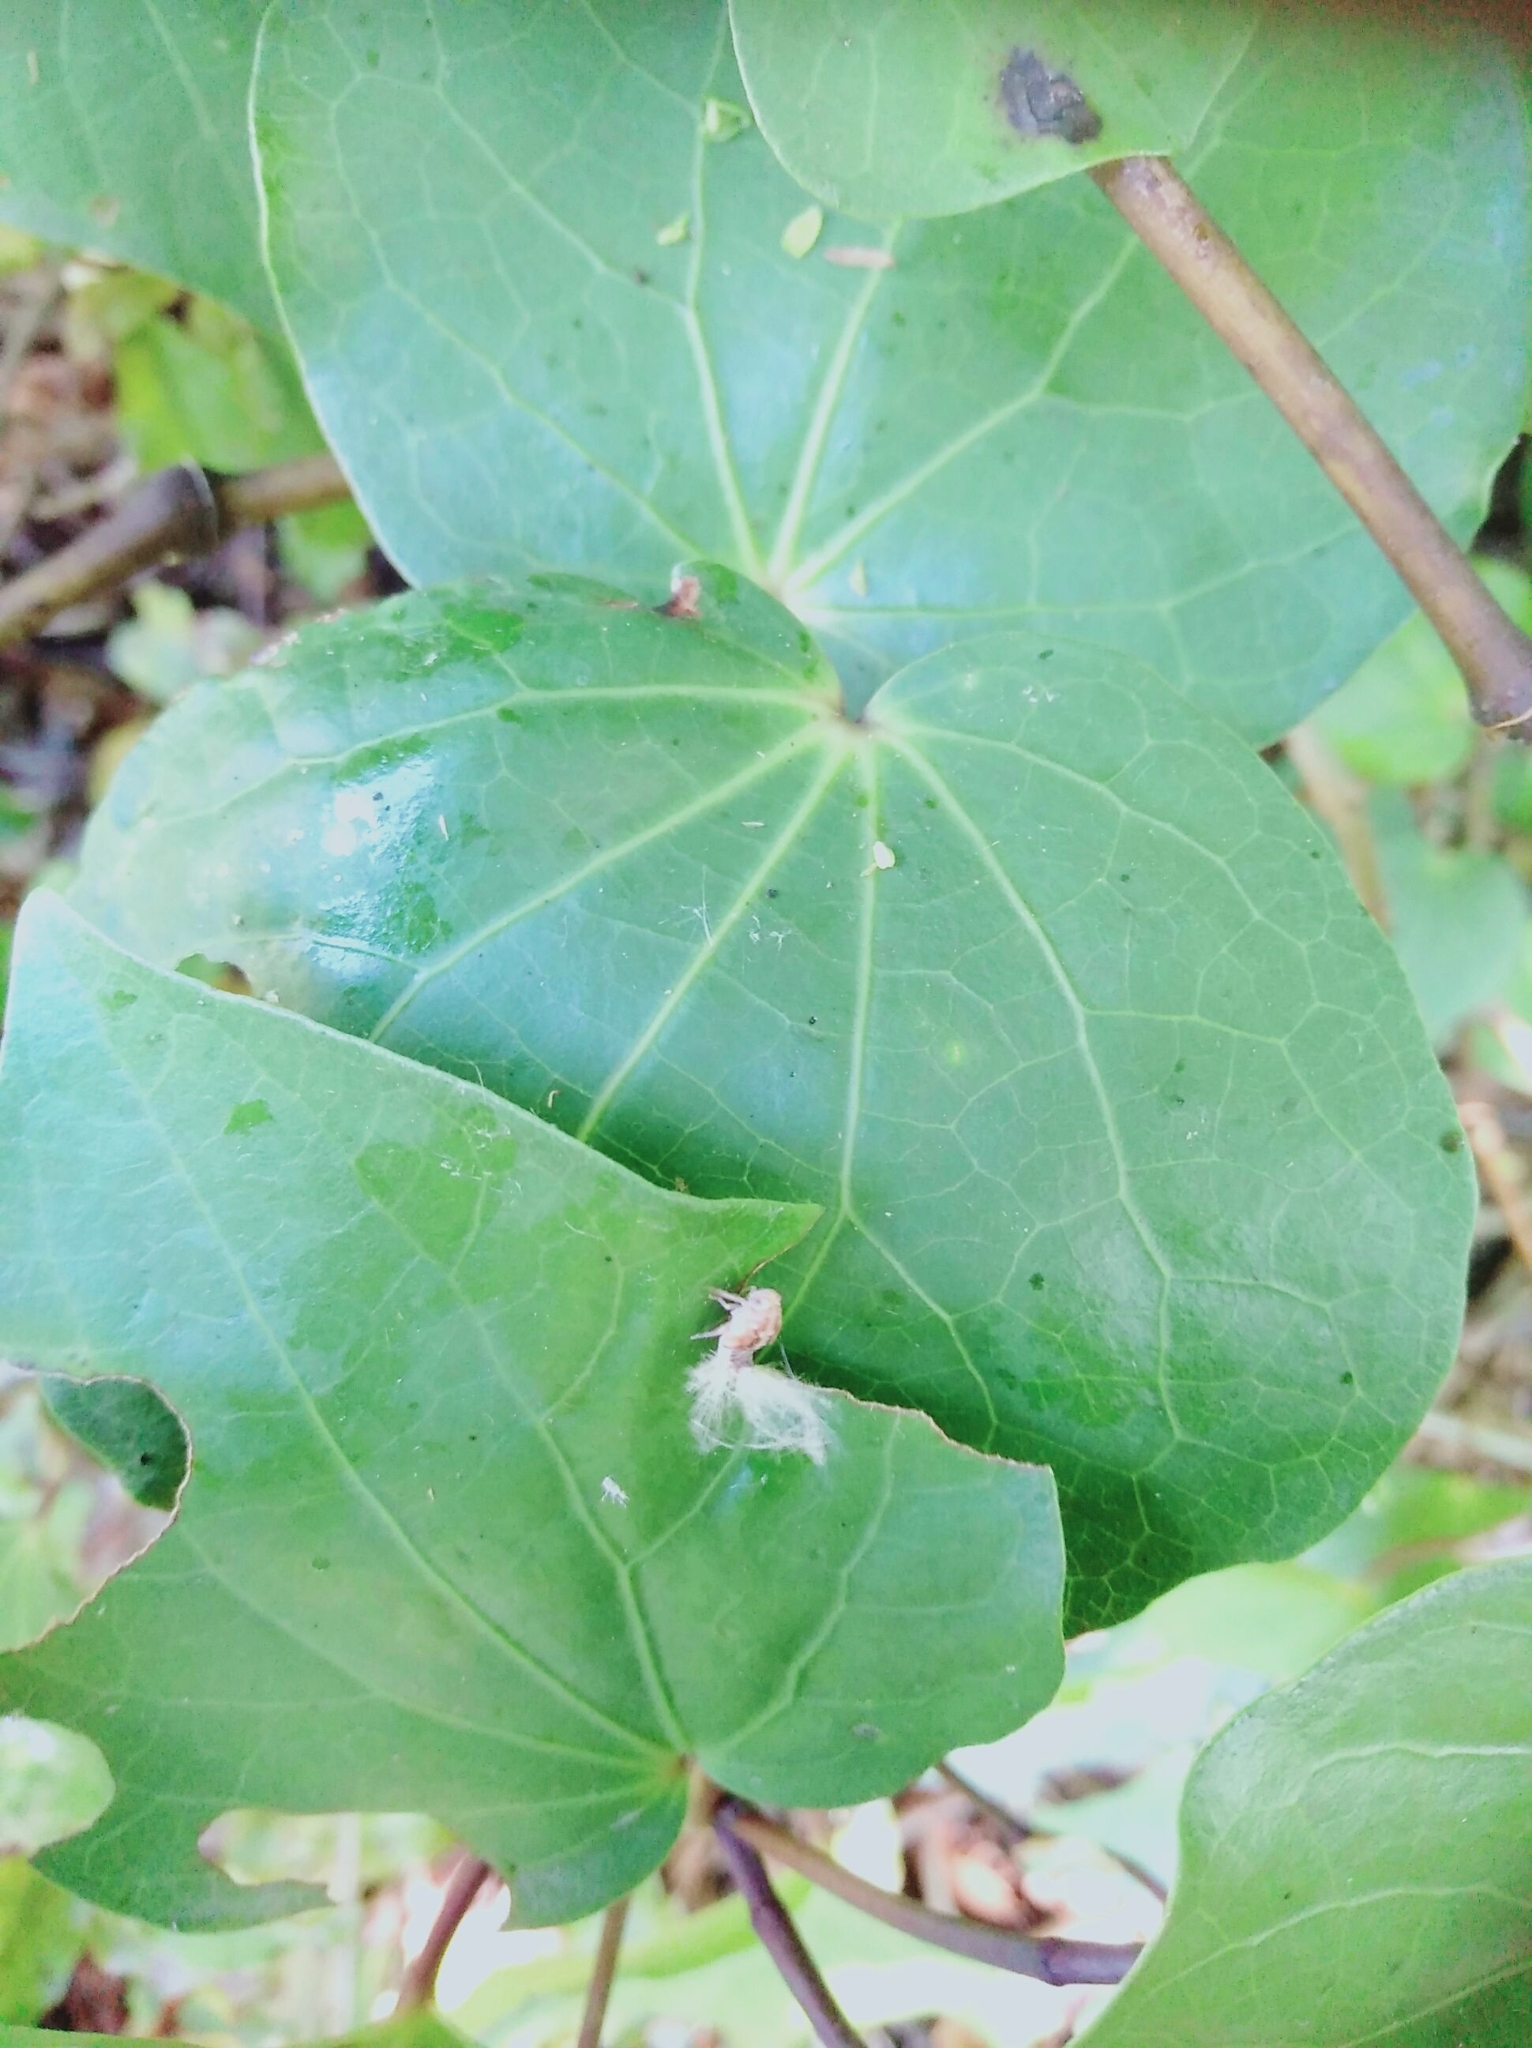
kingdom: Animalia
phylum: Arthropoda
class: Insecta
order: Hemiptera
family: Ricaniidae
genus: Scolypopa
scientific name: Scolypopa australis
